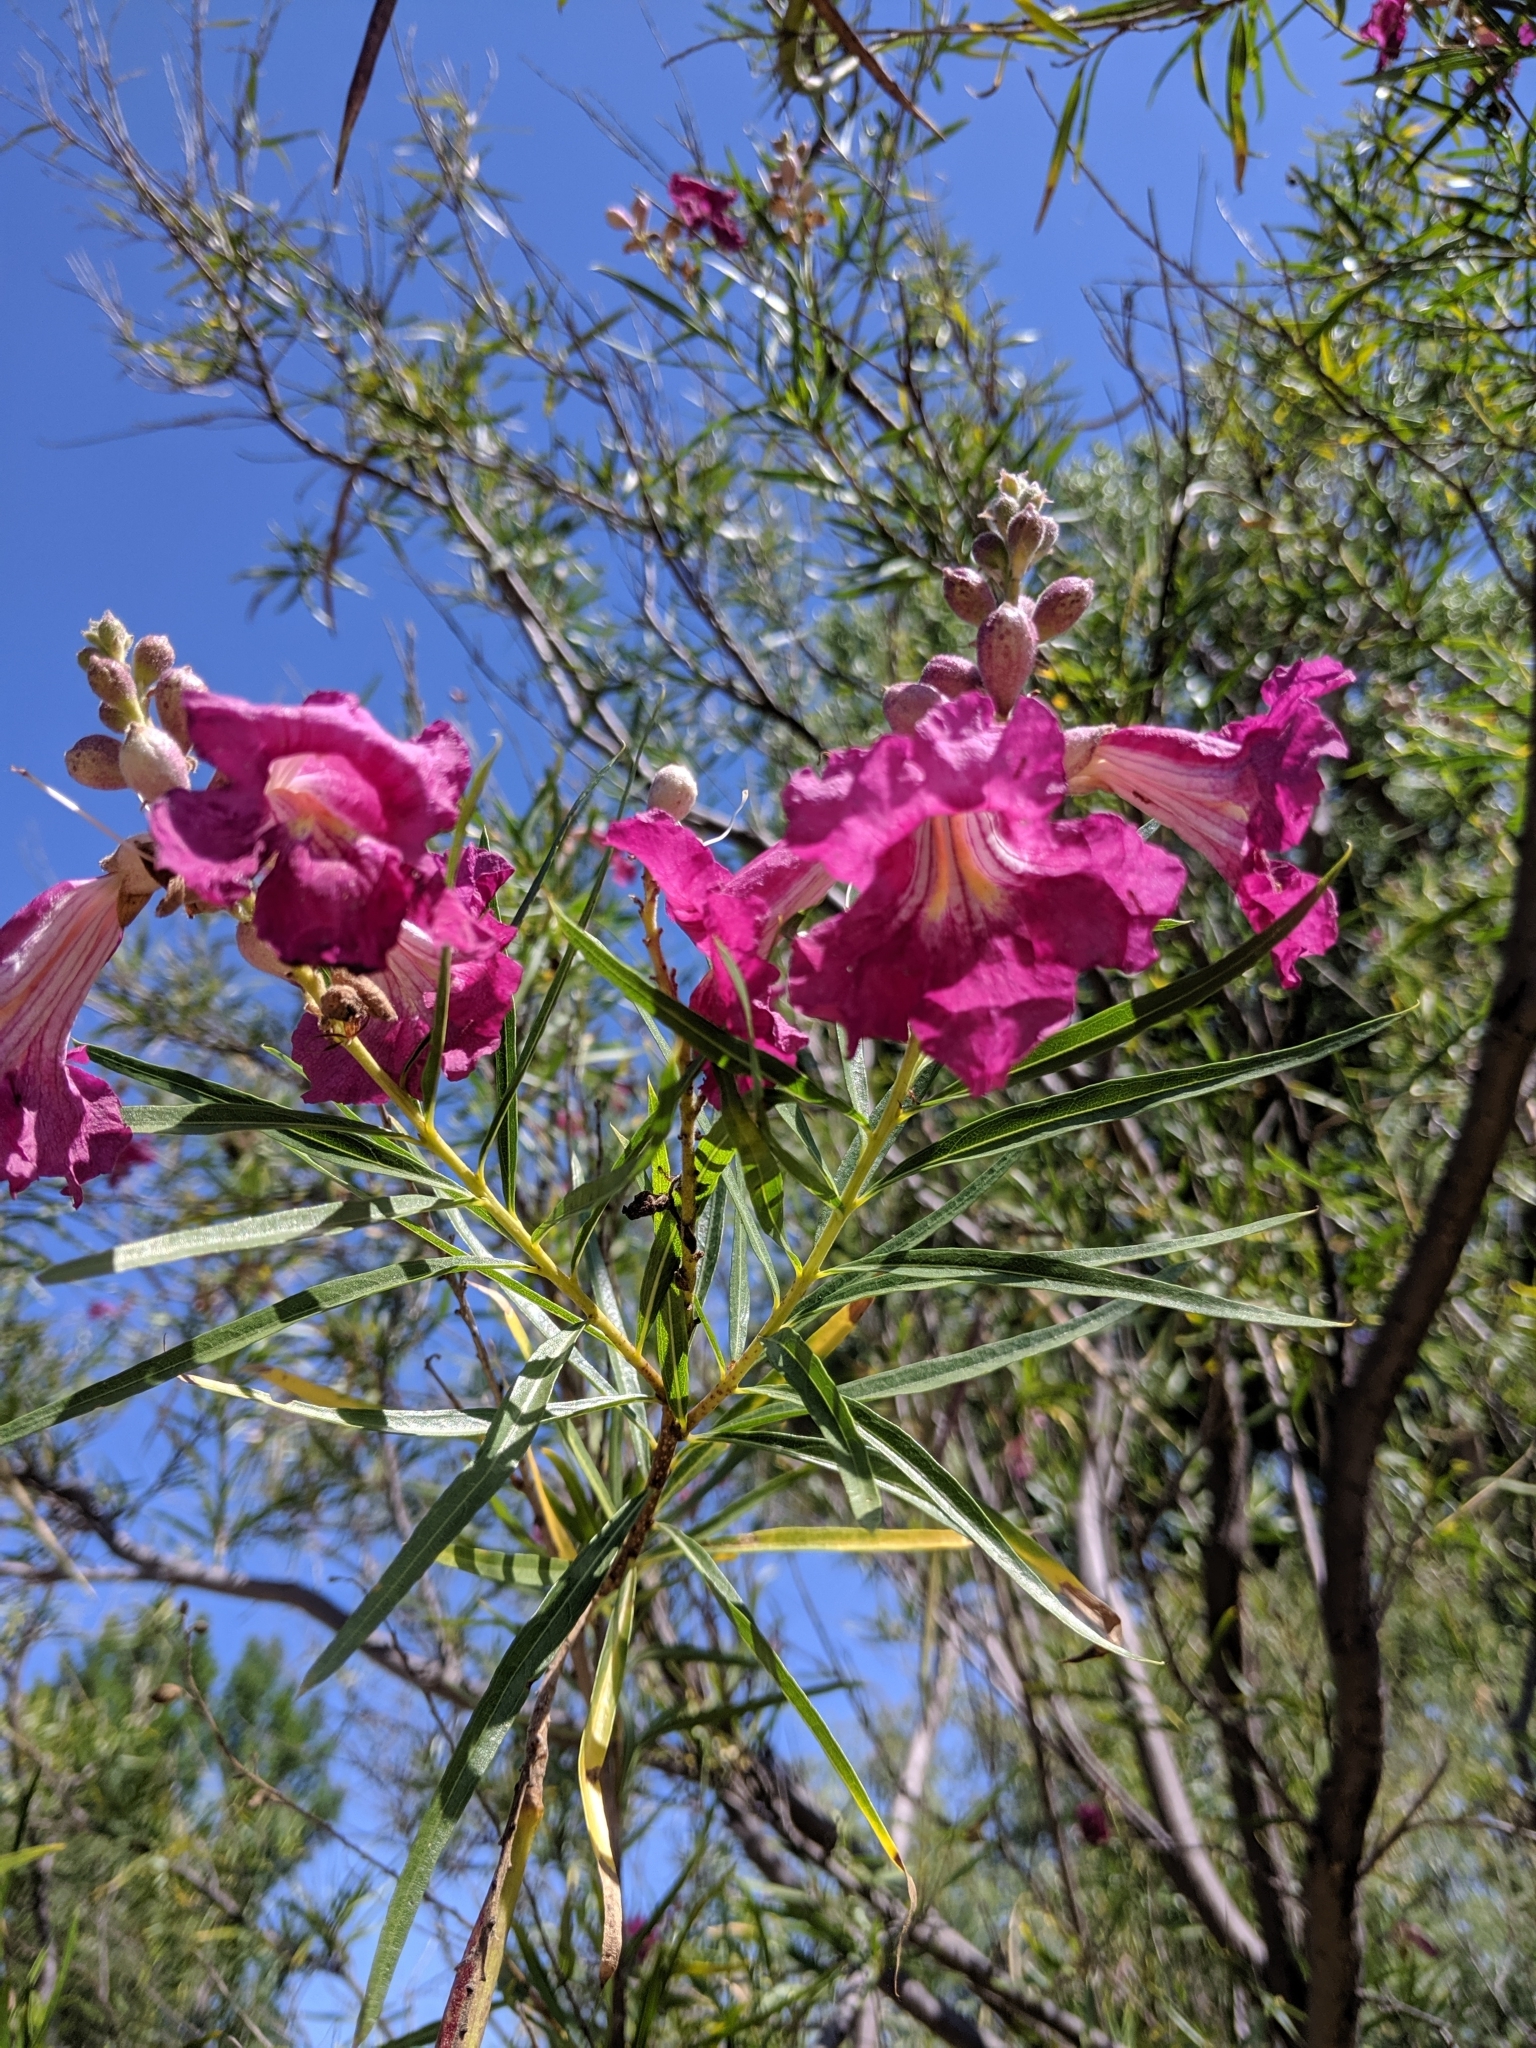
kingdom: Plantae
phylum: Tracheophyta
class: Magnoliopsida
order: Lamiales
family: Bignoniaceae
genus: Chilopsis
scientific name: Chilopsis linearis
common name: Desert-willow
